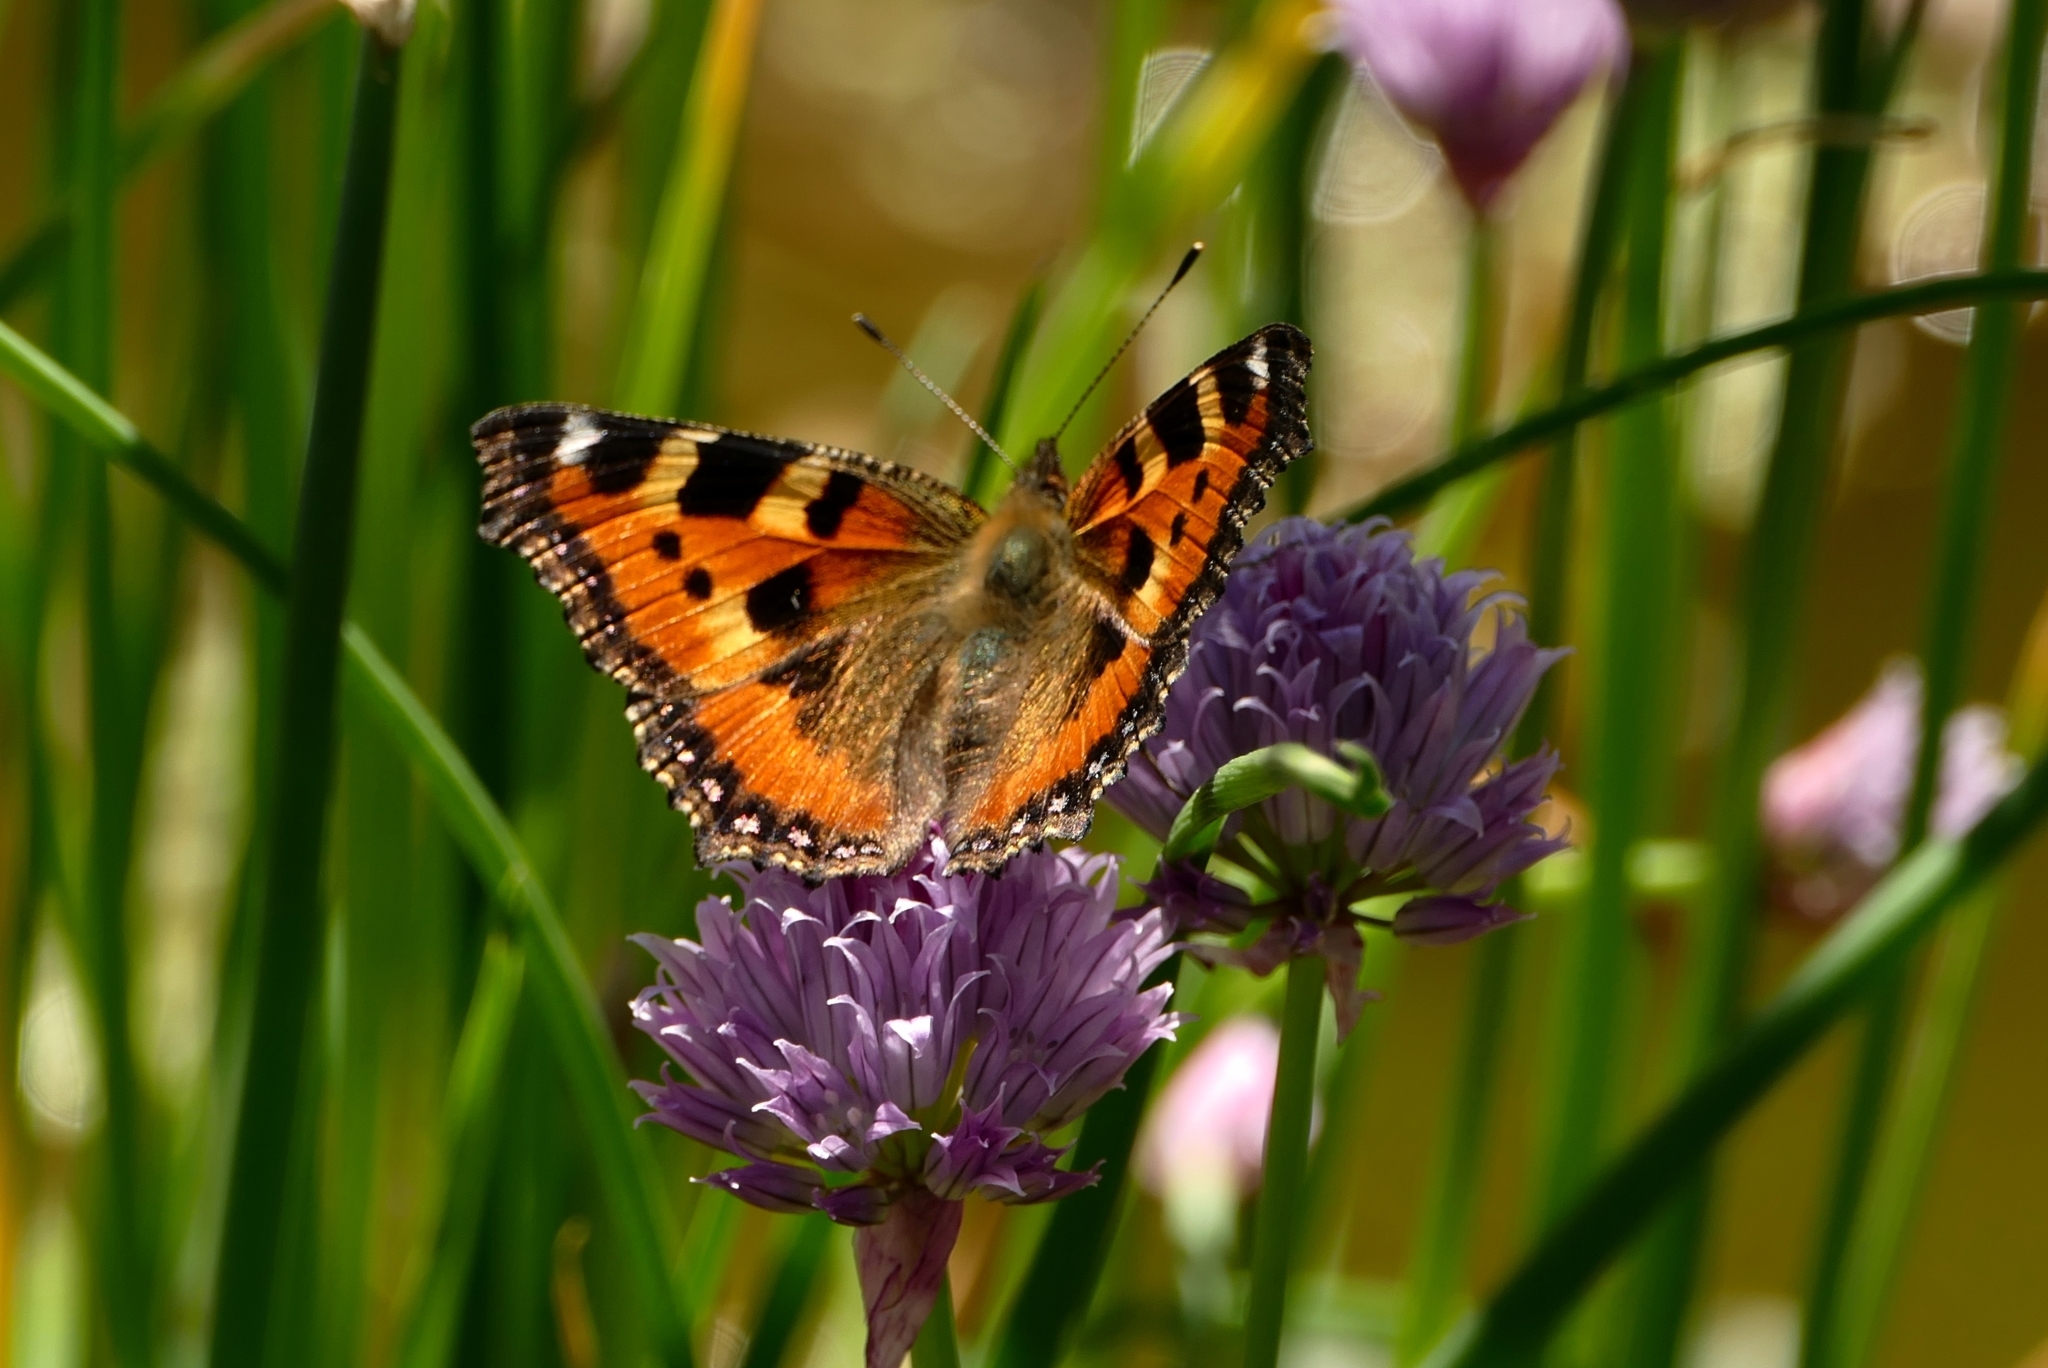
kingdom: Animalia
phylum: Arthropoda
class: Insecta
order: Lepidoptera
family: Nymphalidae
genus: Aglais
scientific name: Aglais urticae
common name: Small tortoiseshell
